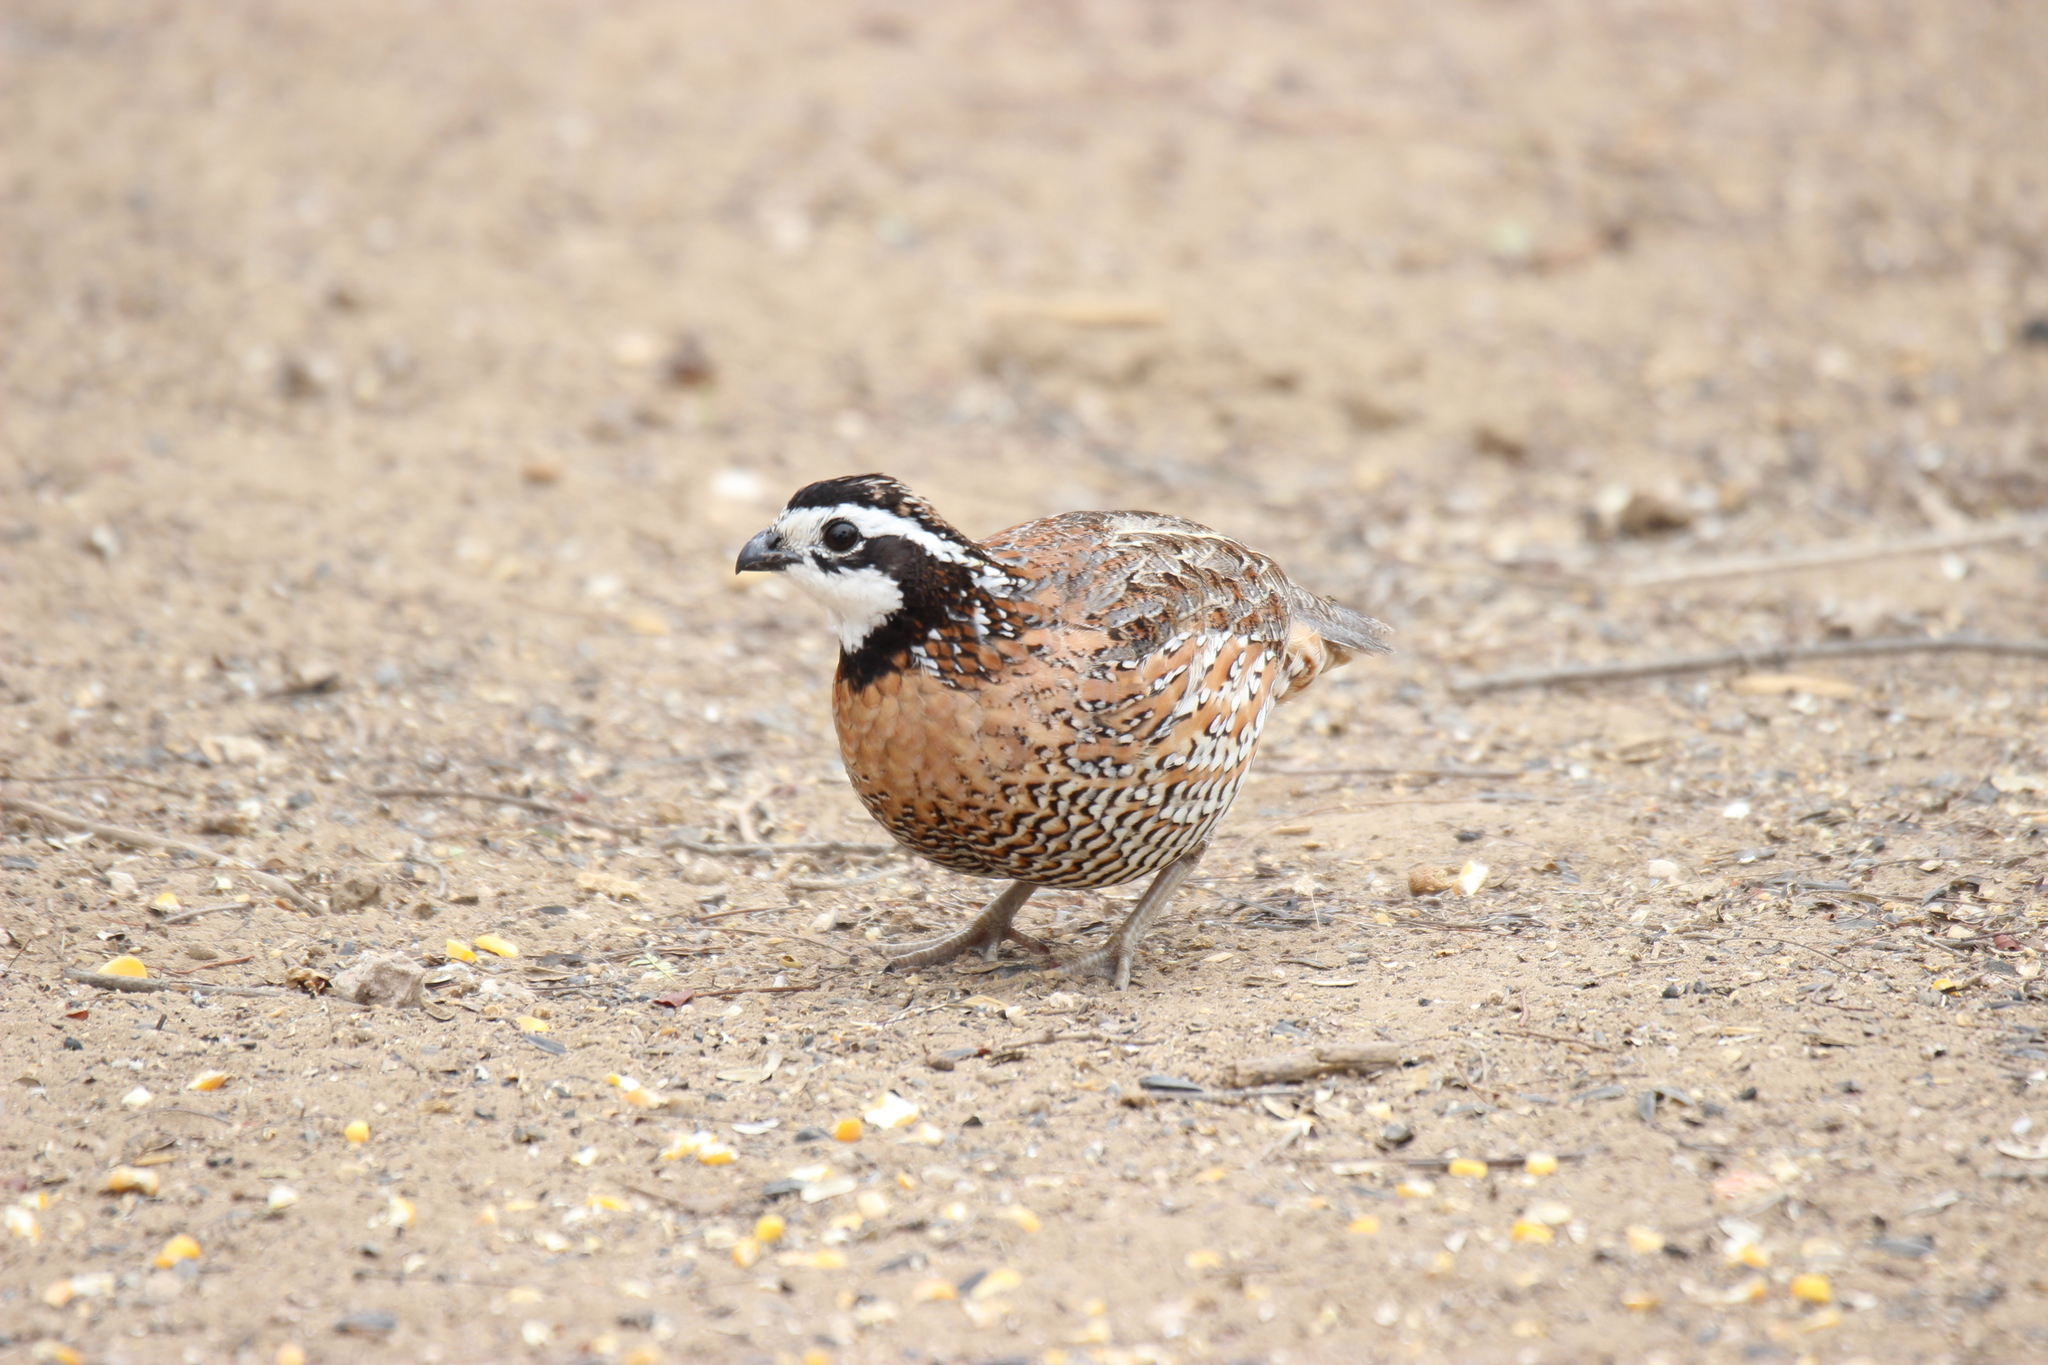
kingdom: Animalia
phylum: Chordata
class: Aves
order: Galliformes
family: Odontophoridae
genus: Colinus
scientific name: Colinus virginianus
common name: Northern bobwhite
